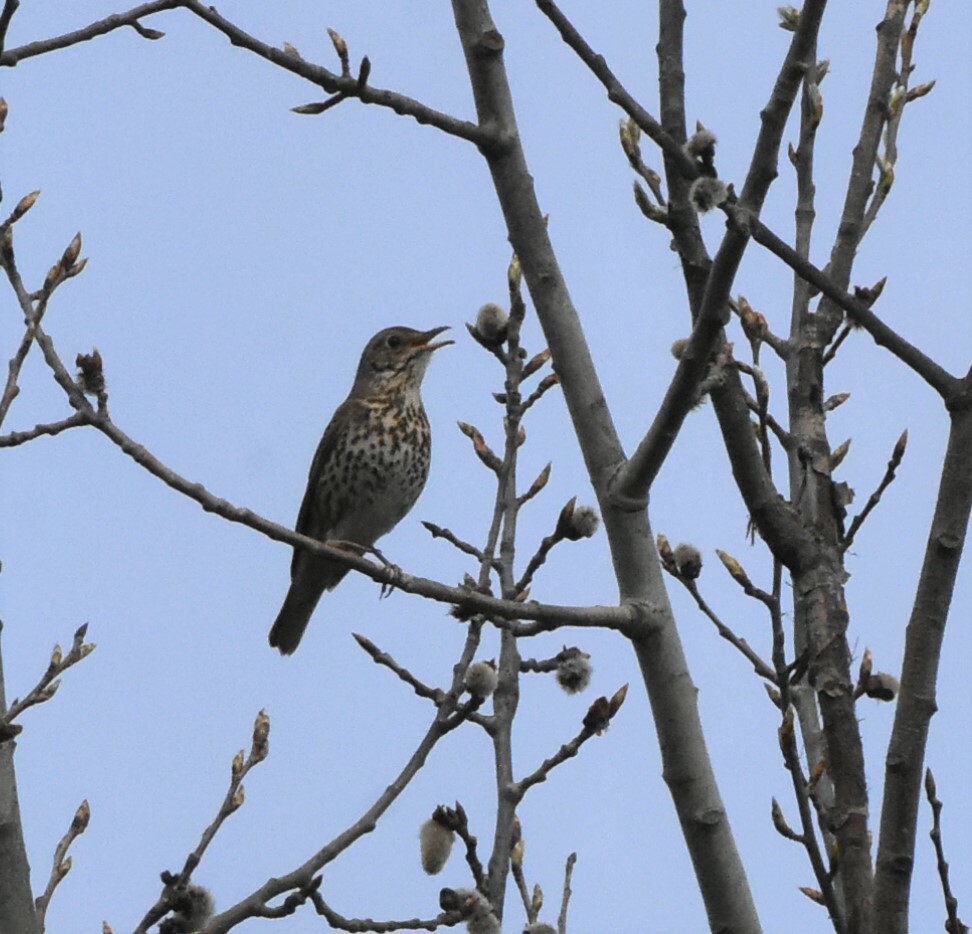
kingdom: Animalia
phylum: Chordata
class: Aves
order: Passeriformes
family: Turdidae
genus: Turdus
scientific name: Turdus philomelos
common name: Song thrush
